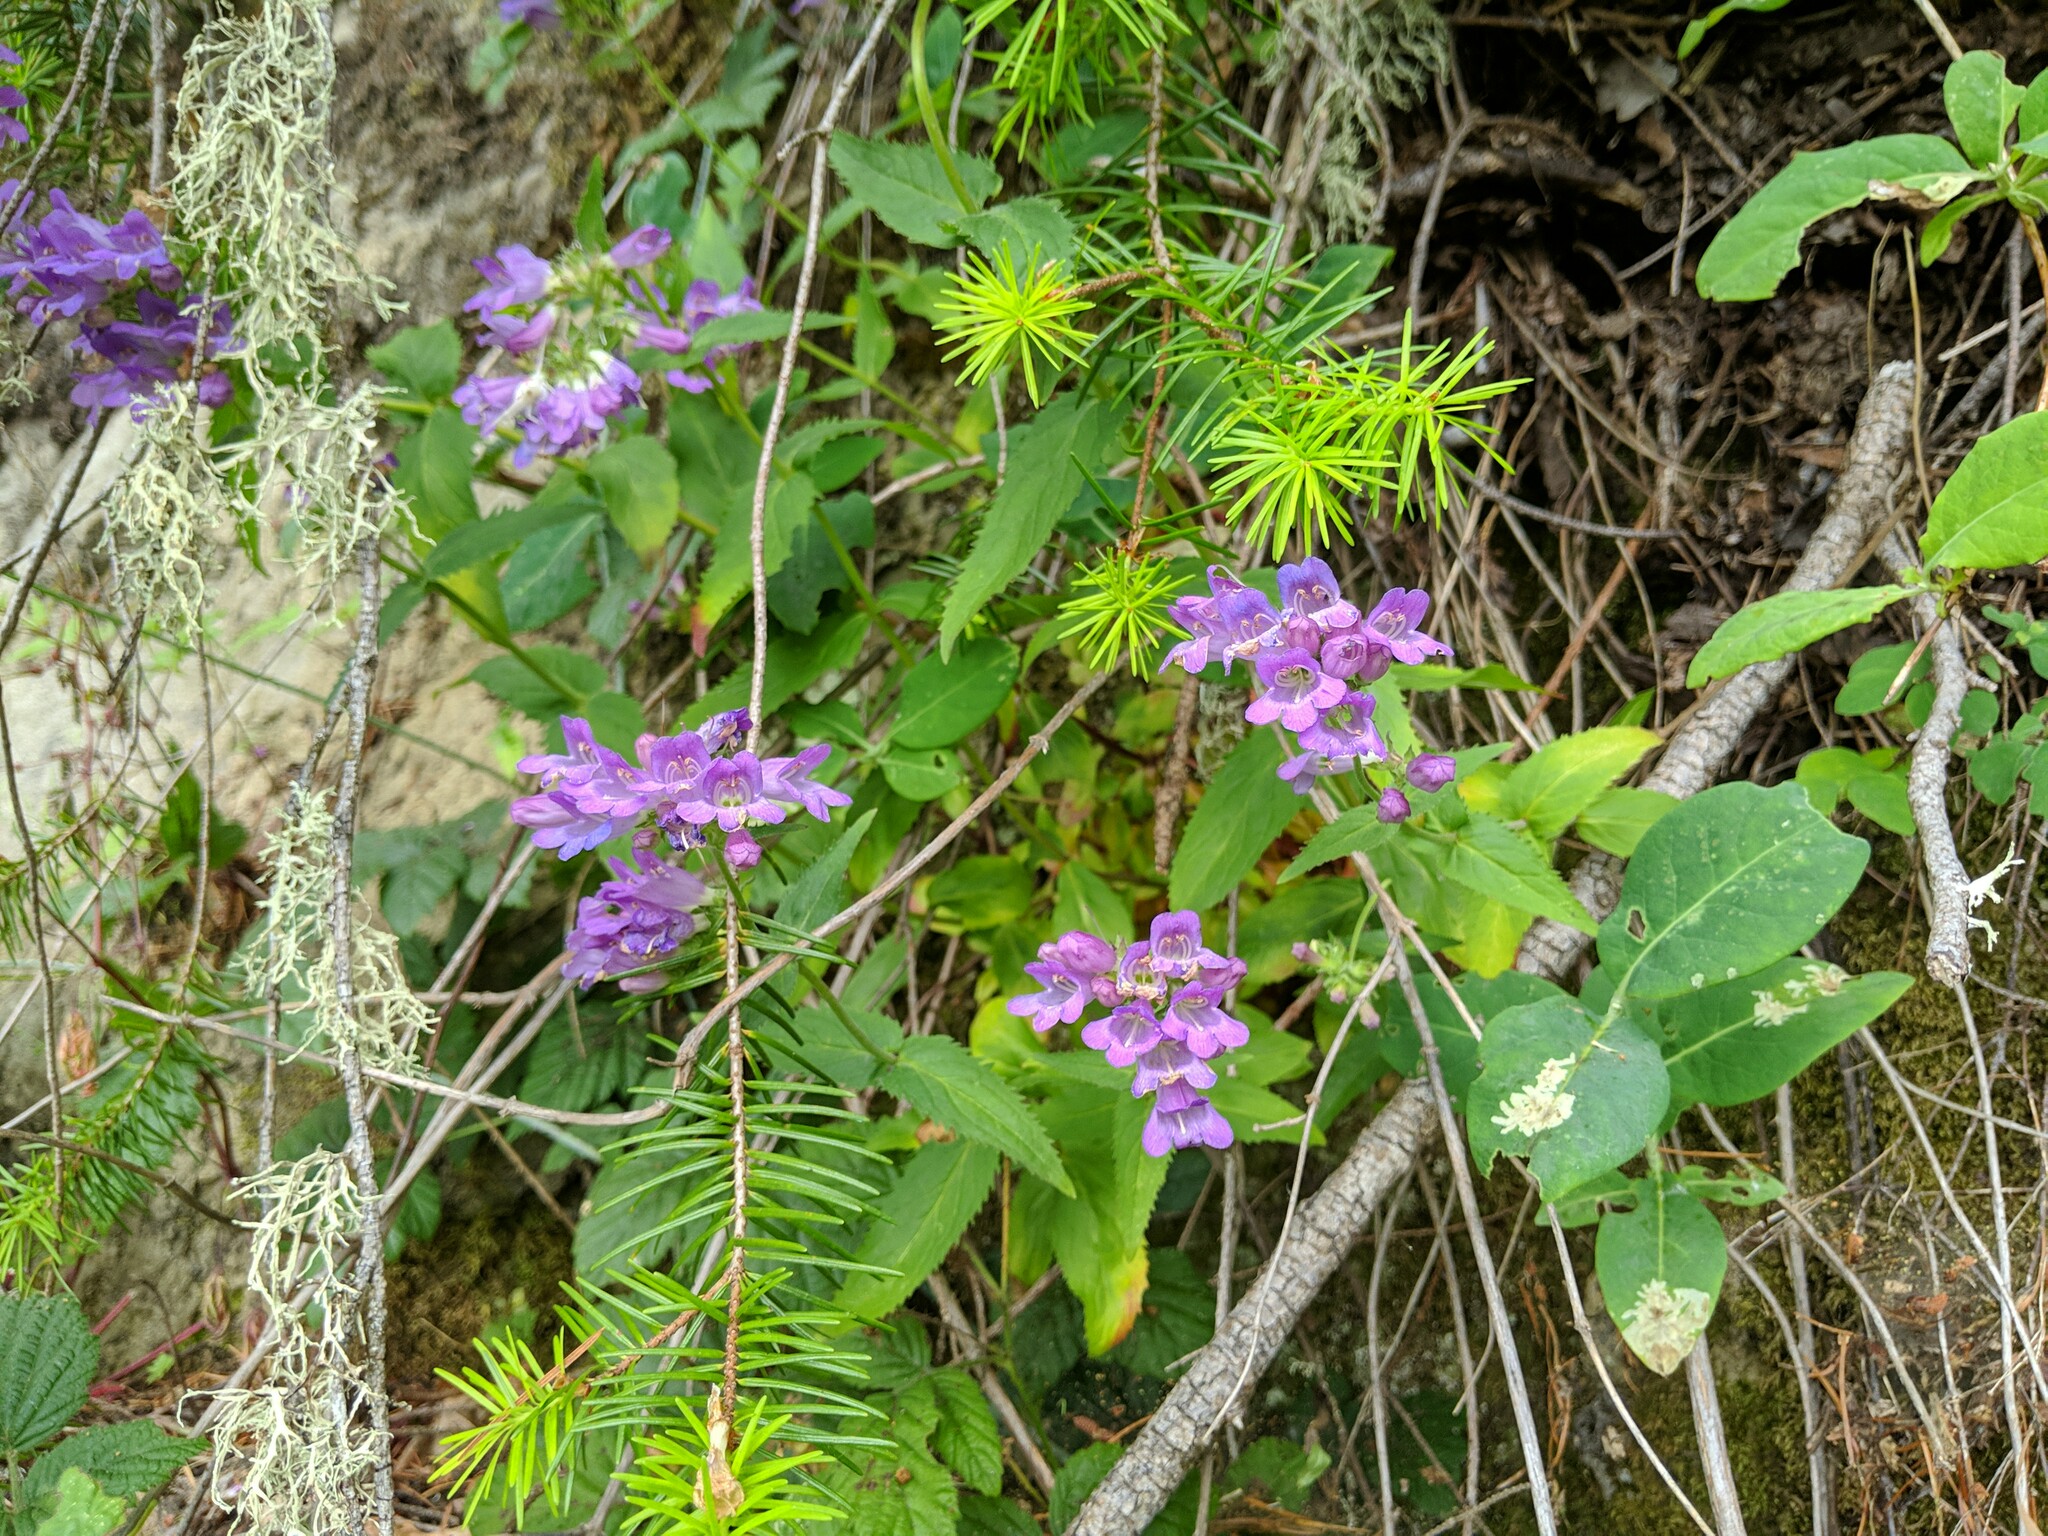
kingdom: Plantae
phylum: Tracheophyta
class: Magnoliopsida
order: Lamiales
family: Plantaginaceae
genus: Penstemon
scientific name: Penstemon serrulatus
